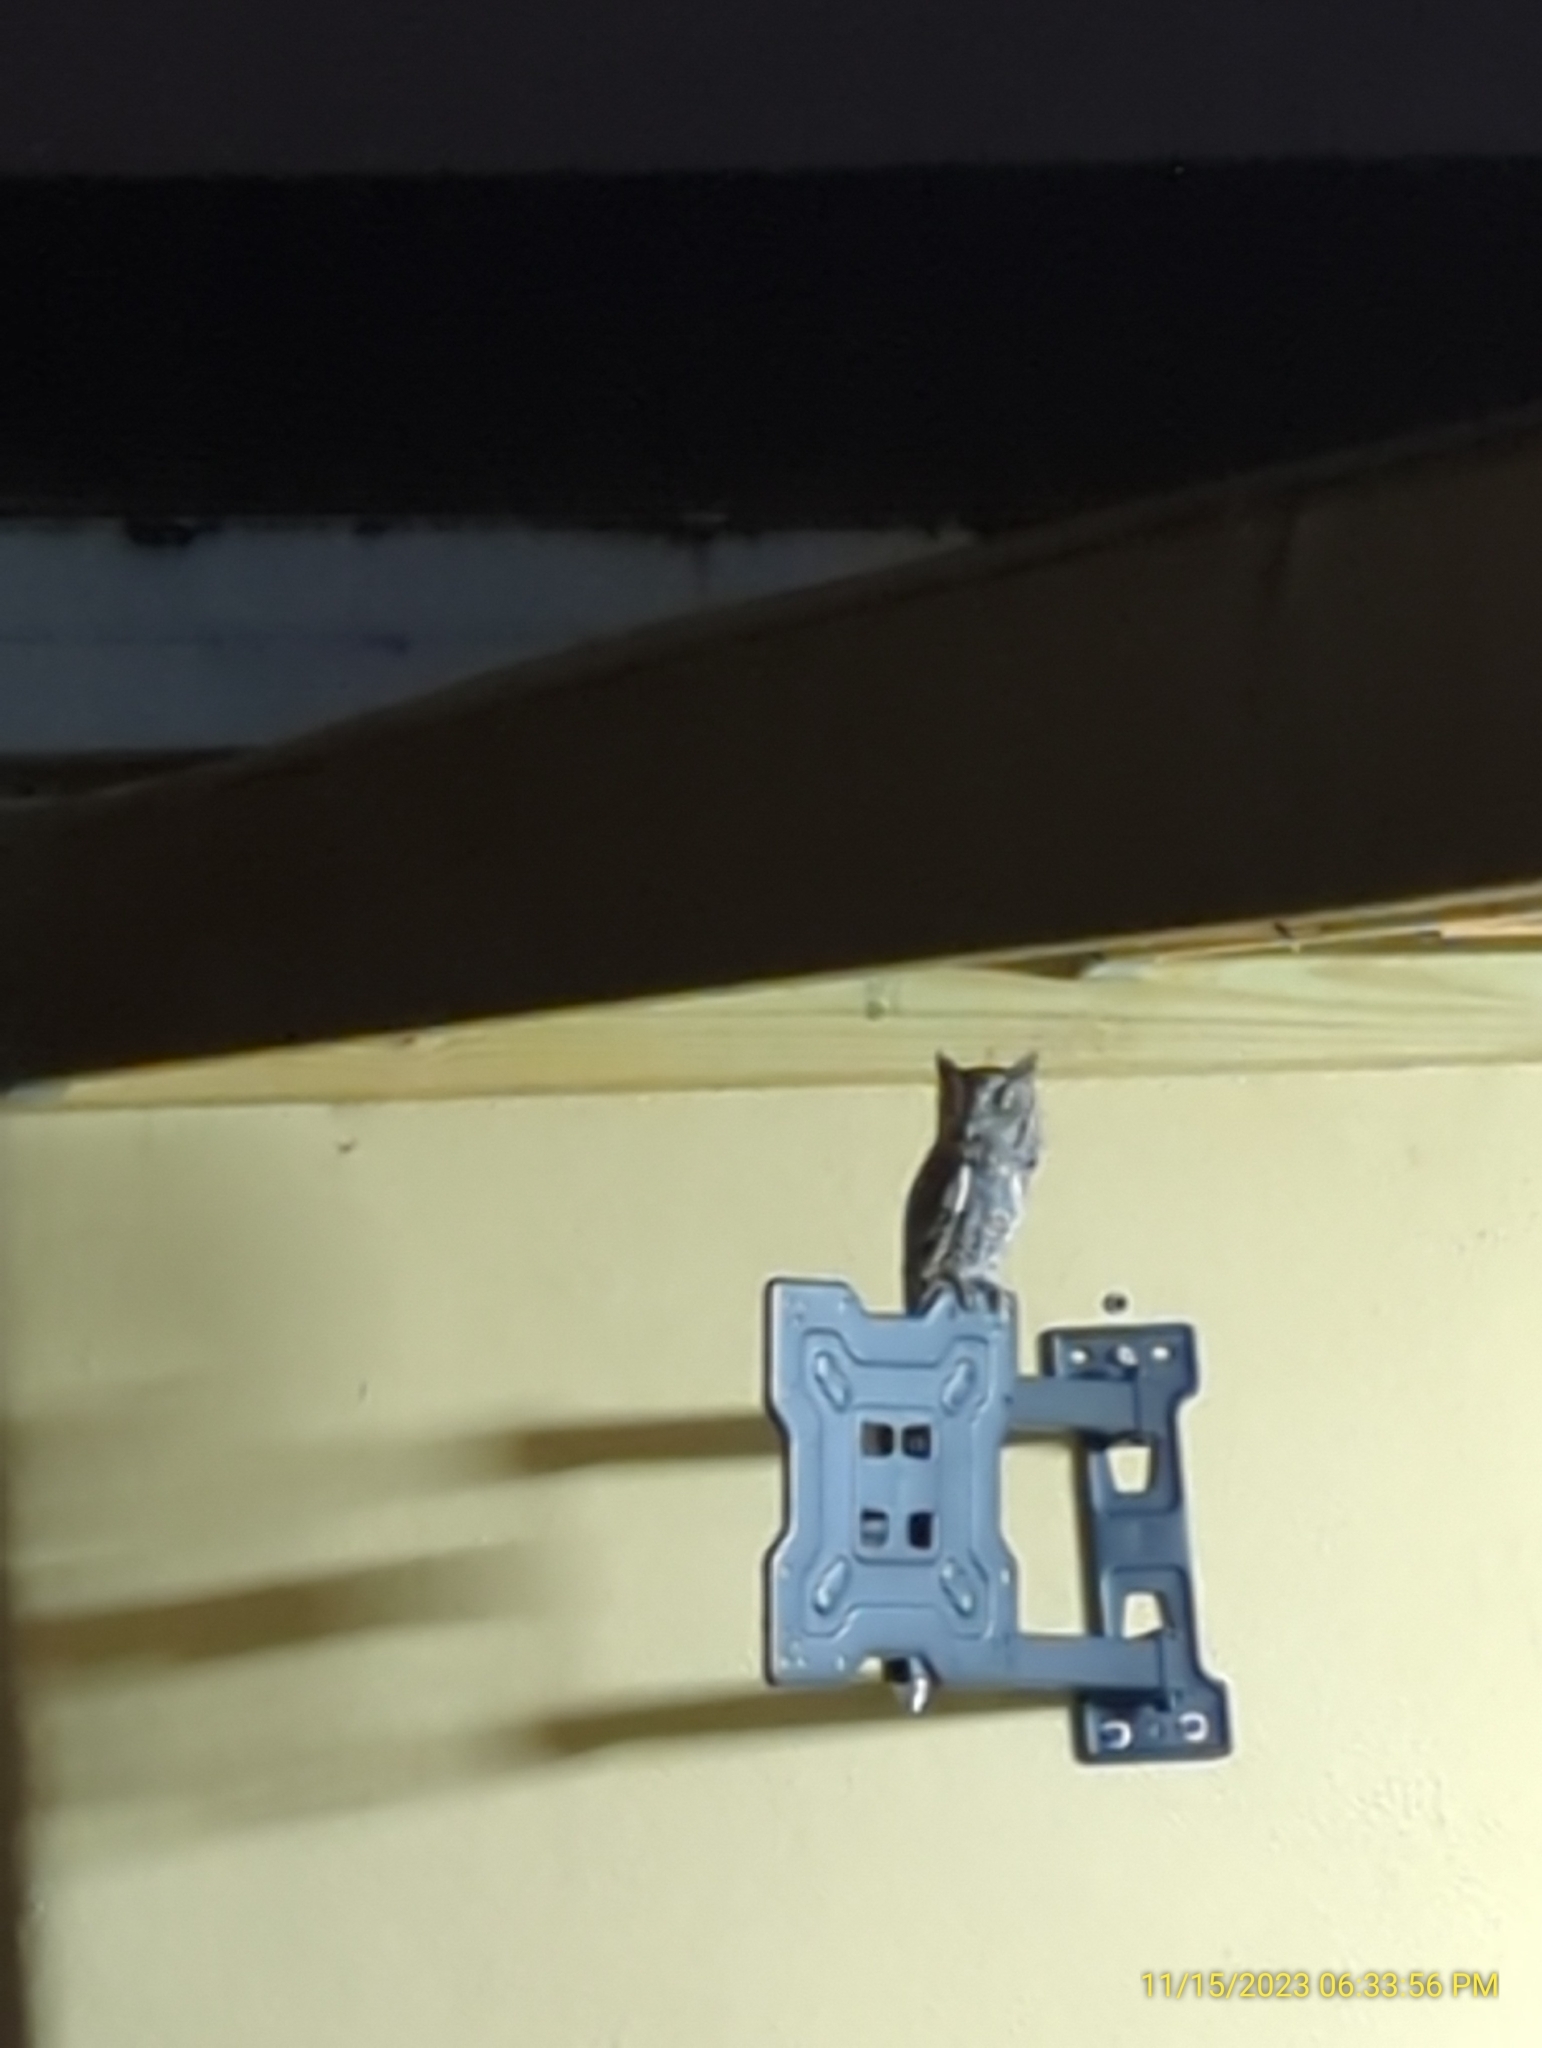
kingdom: Animalia
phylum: Chordata
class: Aves
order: Strigiformes
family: Strigidae
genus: Megascops
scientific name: Megascops asio
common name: Eastern screech-owl
